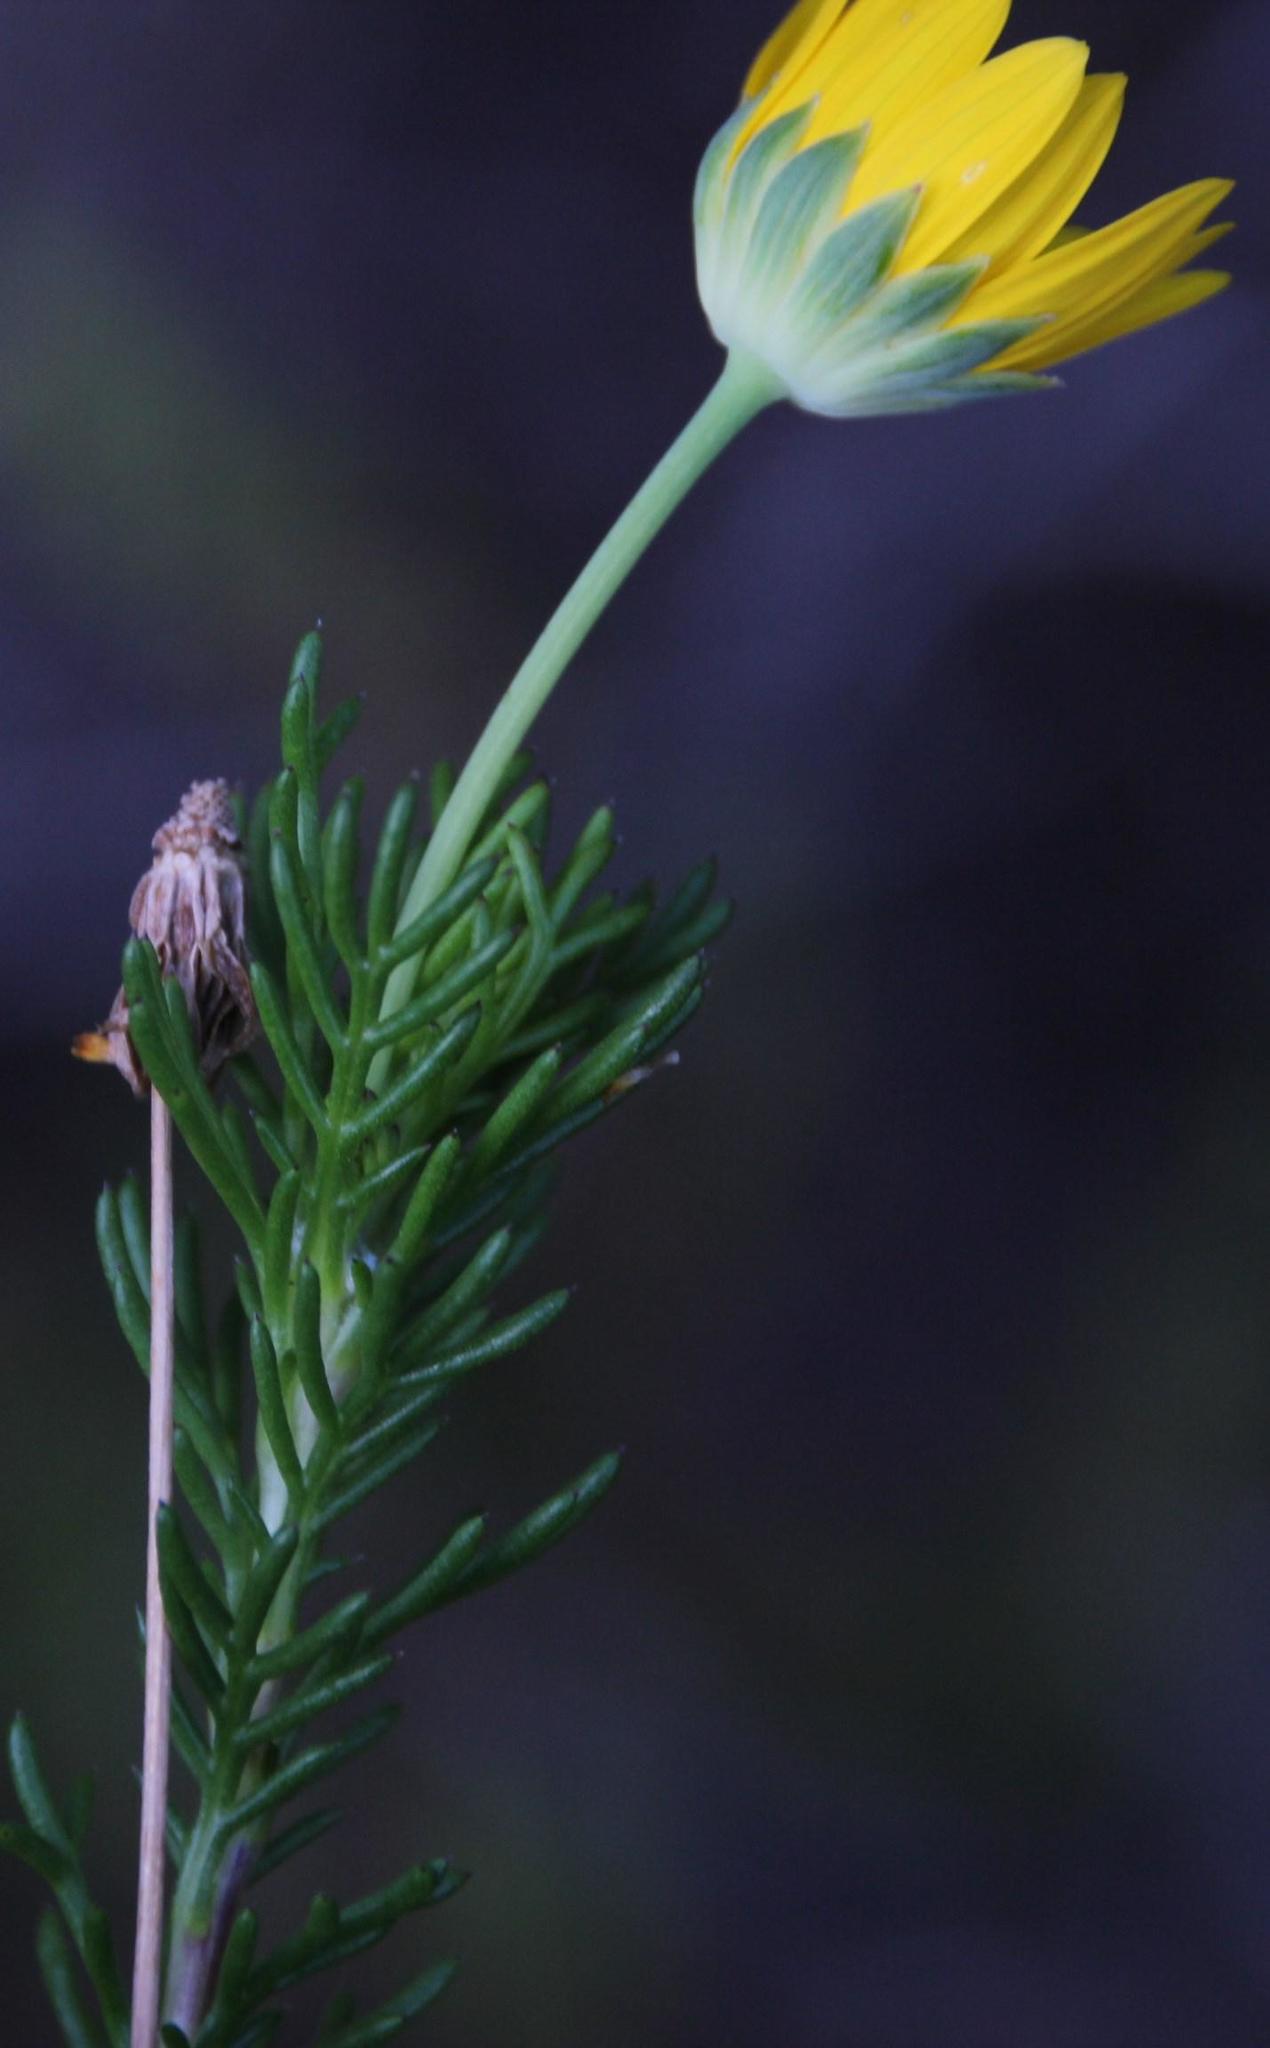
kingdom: Plantae
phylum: Tracheophyta
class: Magnoliopsida
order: Asterales
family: Asteraceae
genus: Euryops
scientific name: Euryops abrotanifolius
